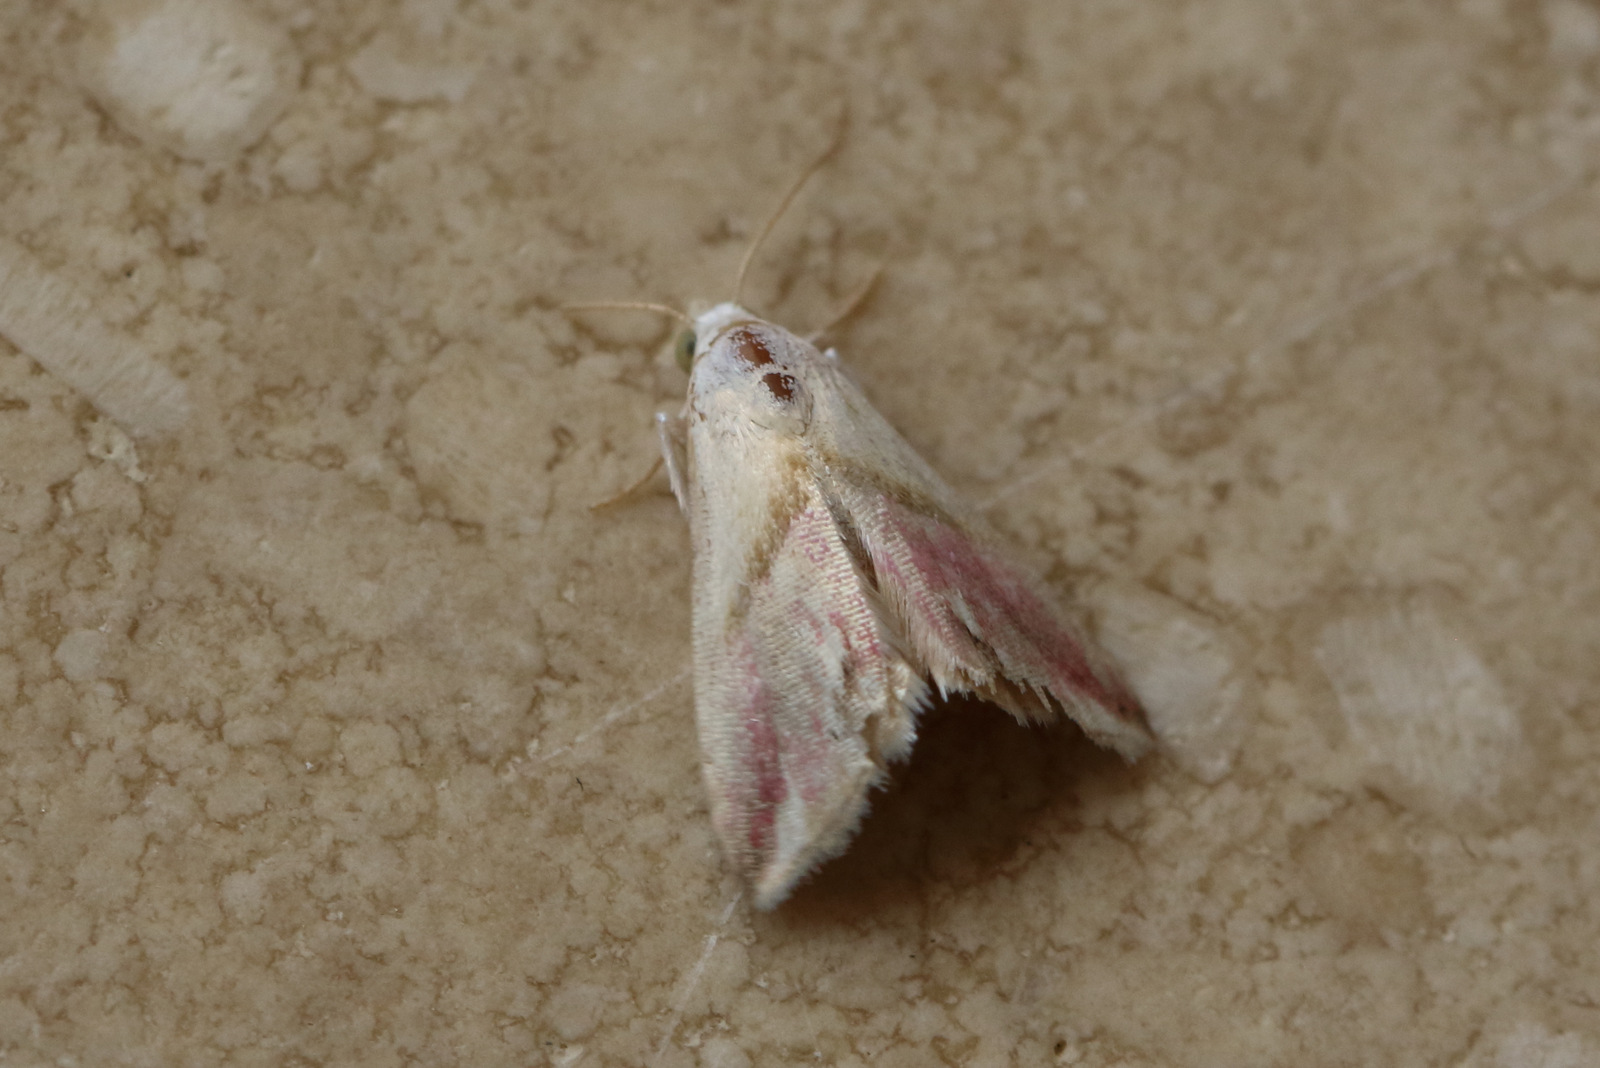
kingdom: Animalia
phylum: Arthropoda
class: Insecta
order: Lepidoptera
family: Noctuidae
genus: Eublemma
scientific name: Eublemma cochylioides
